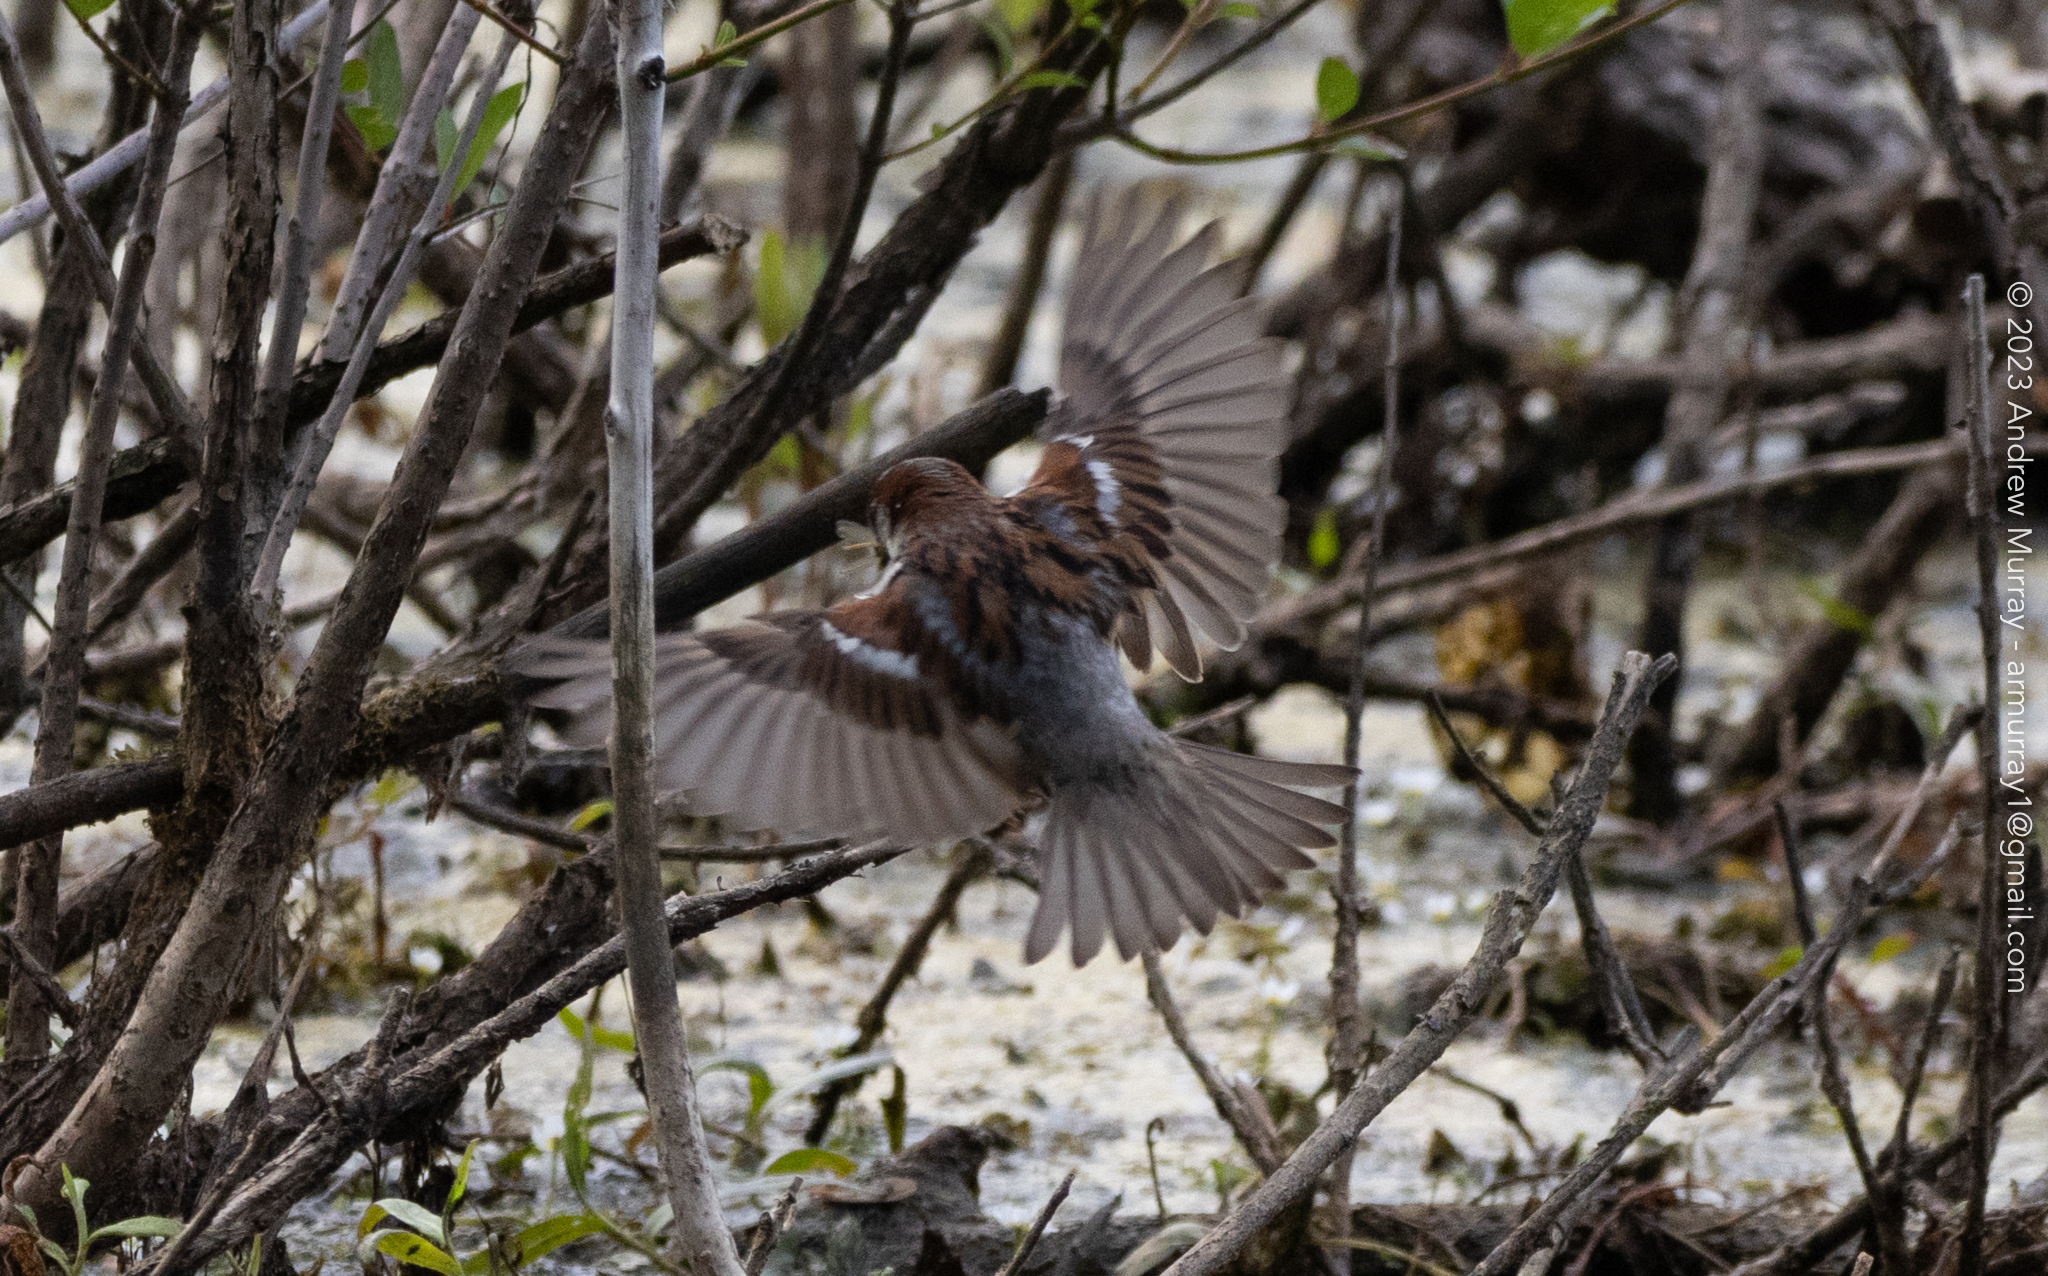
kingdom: Animalia
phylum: Chordata
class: Aves
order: Passeriformes
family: Passeridae
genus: Passer
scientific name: Passer domesticus
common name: House sparrow
